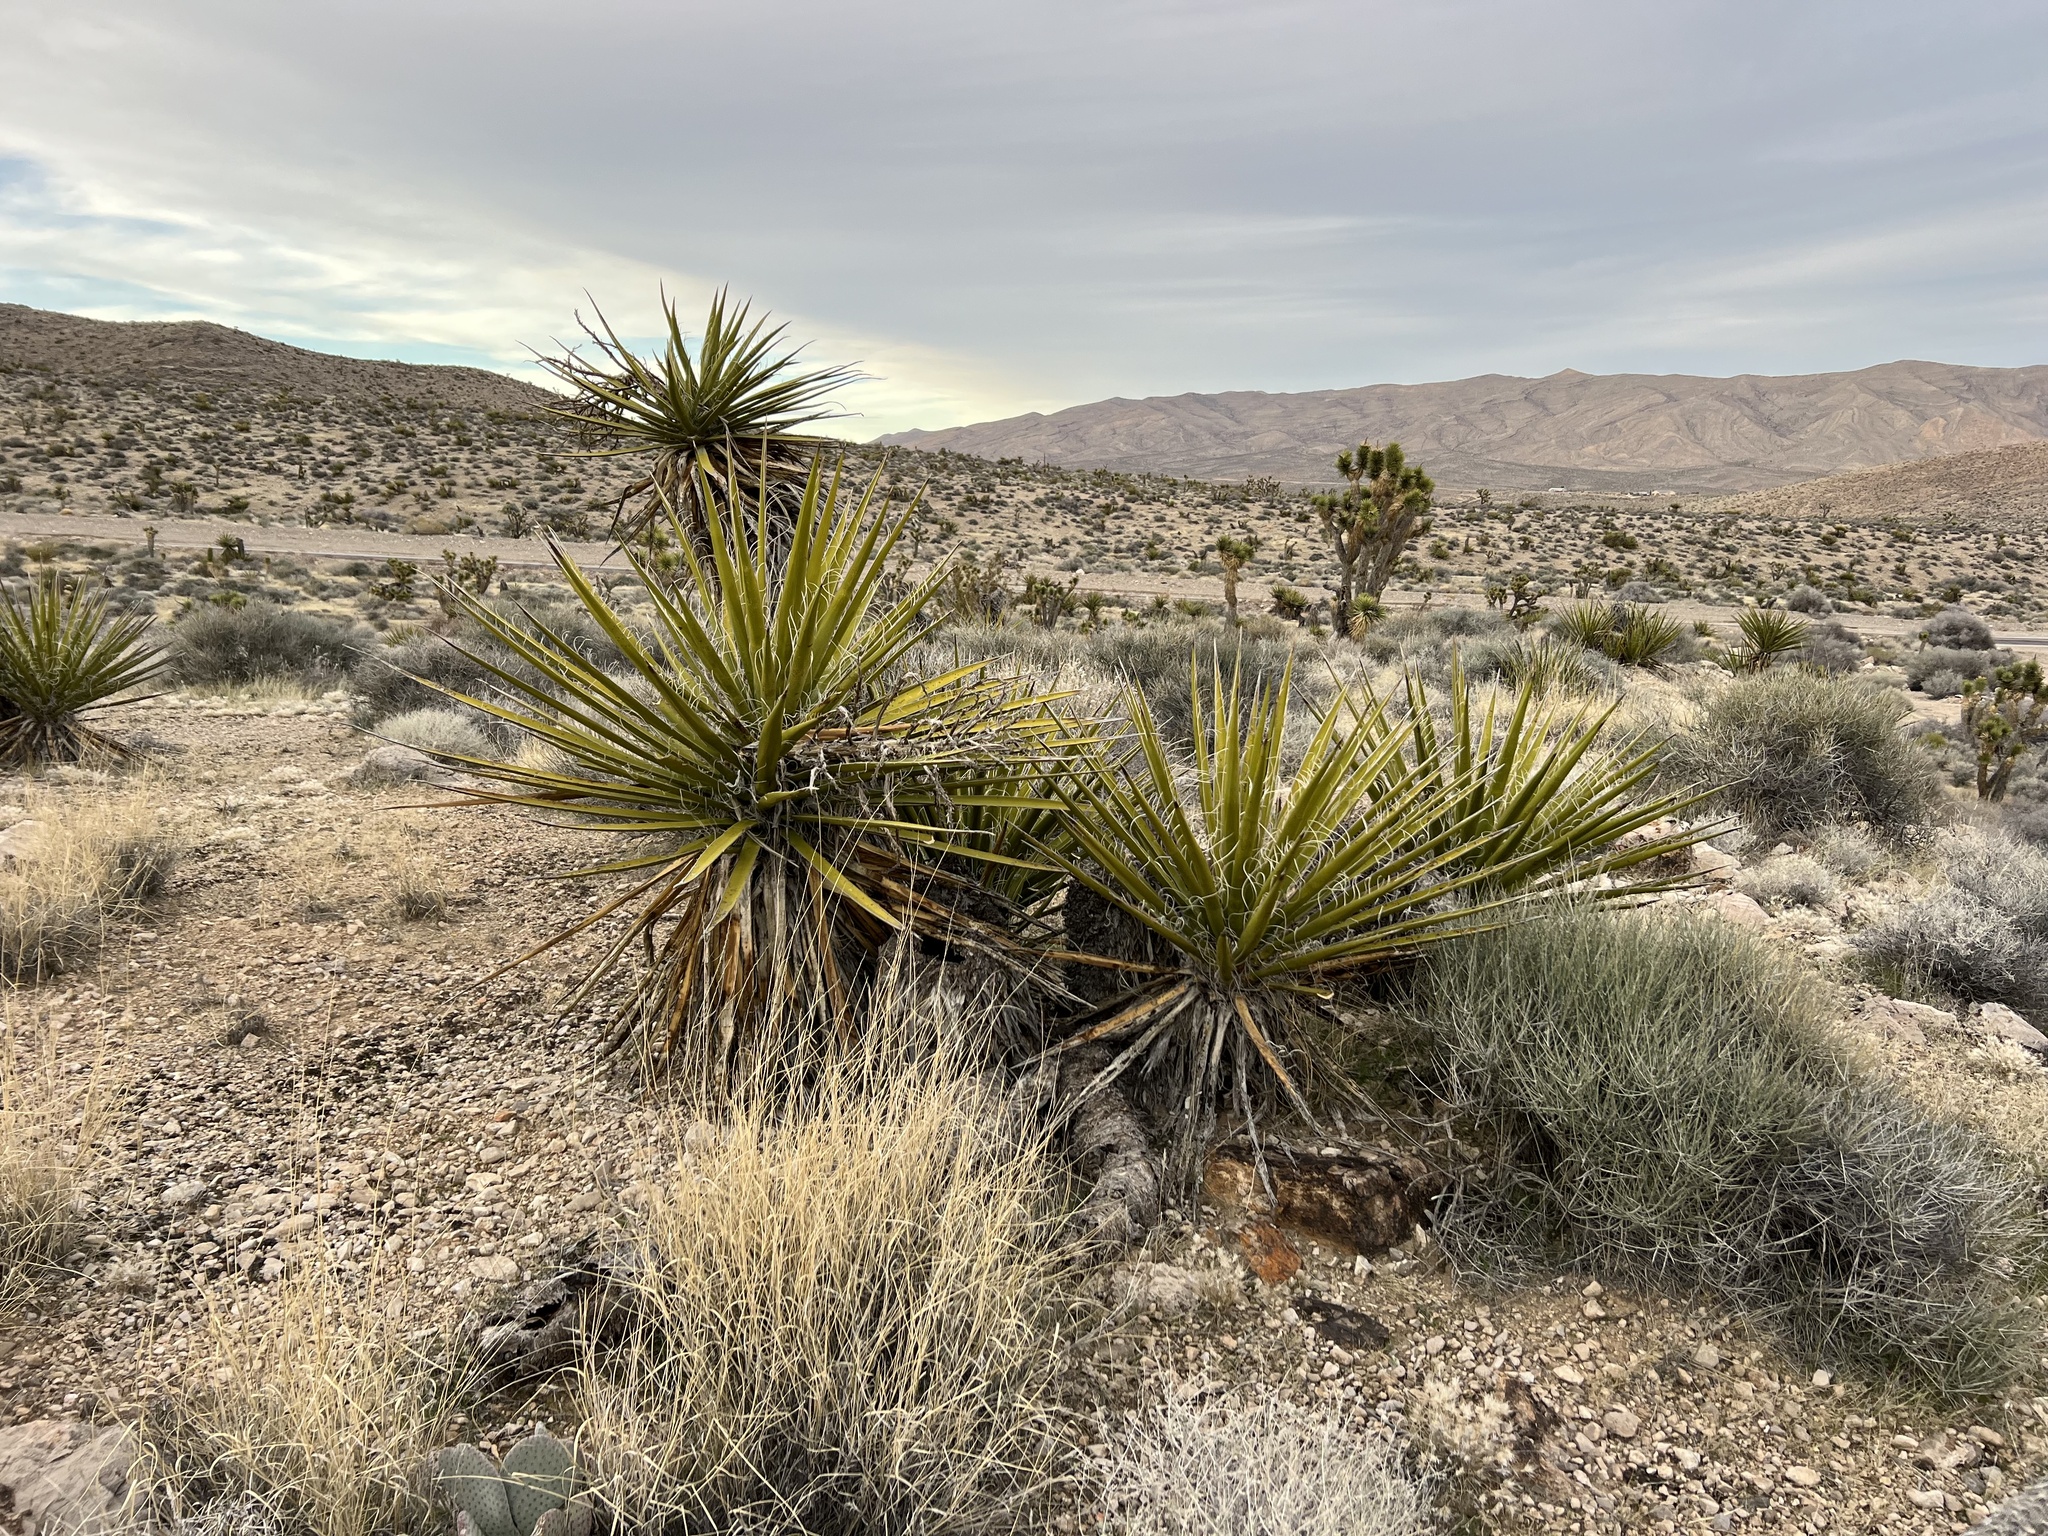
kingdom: Plantae
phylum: Tracheophyta
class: Liliopsida
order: Asparagales
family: Asparagaceae
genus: Yucca
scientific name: Yucca schidigera
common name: Mojave yucca
